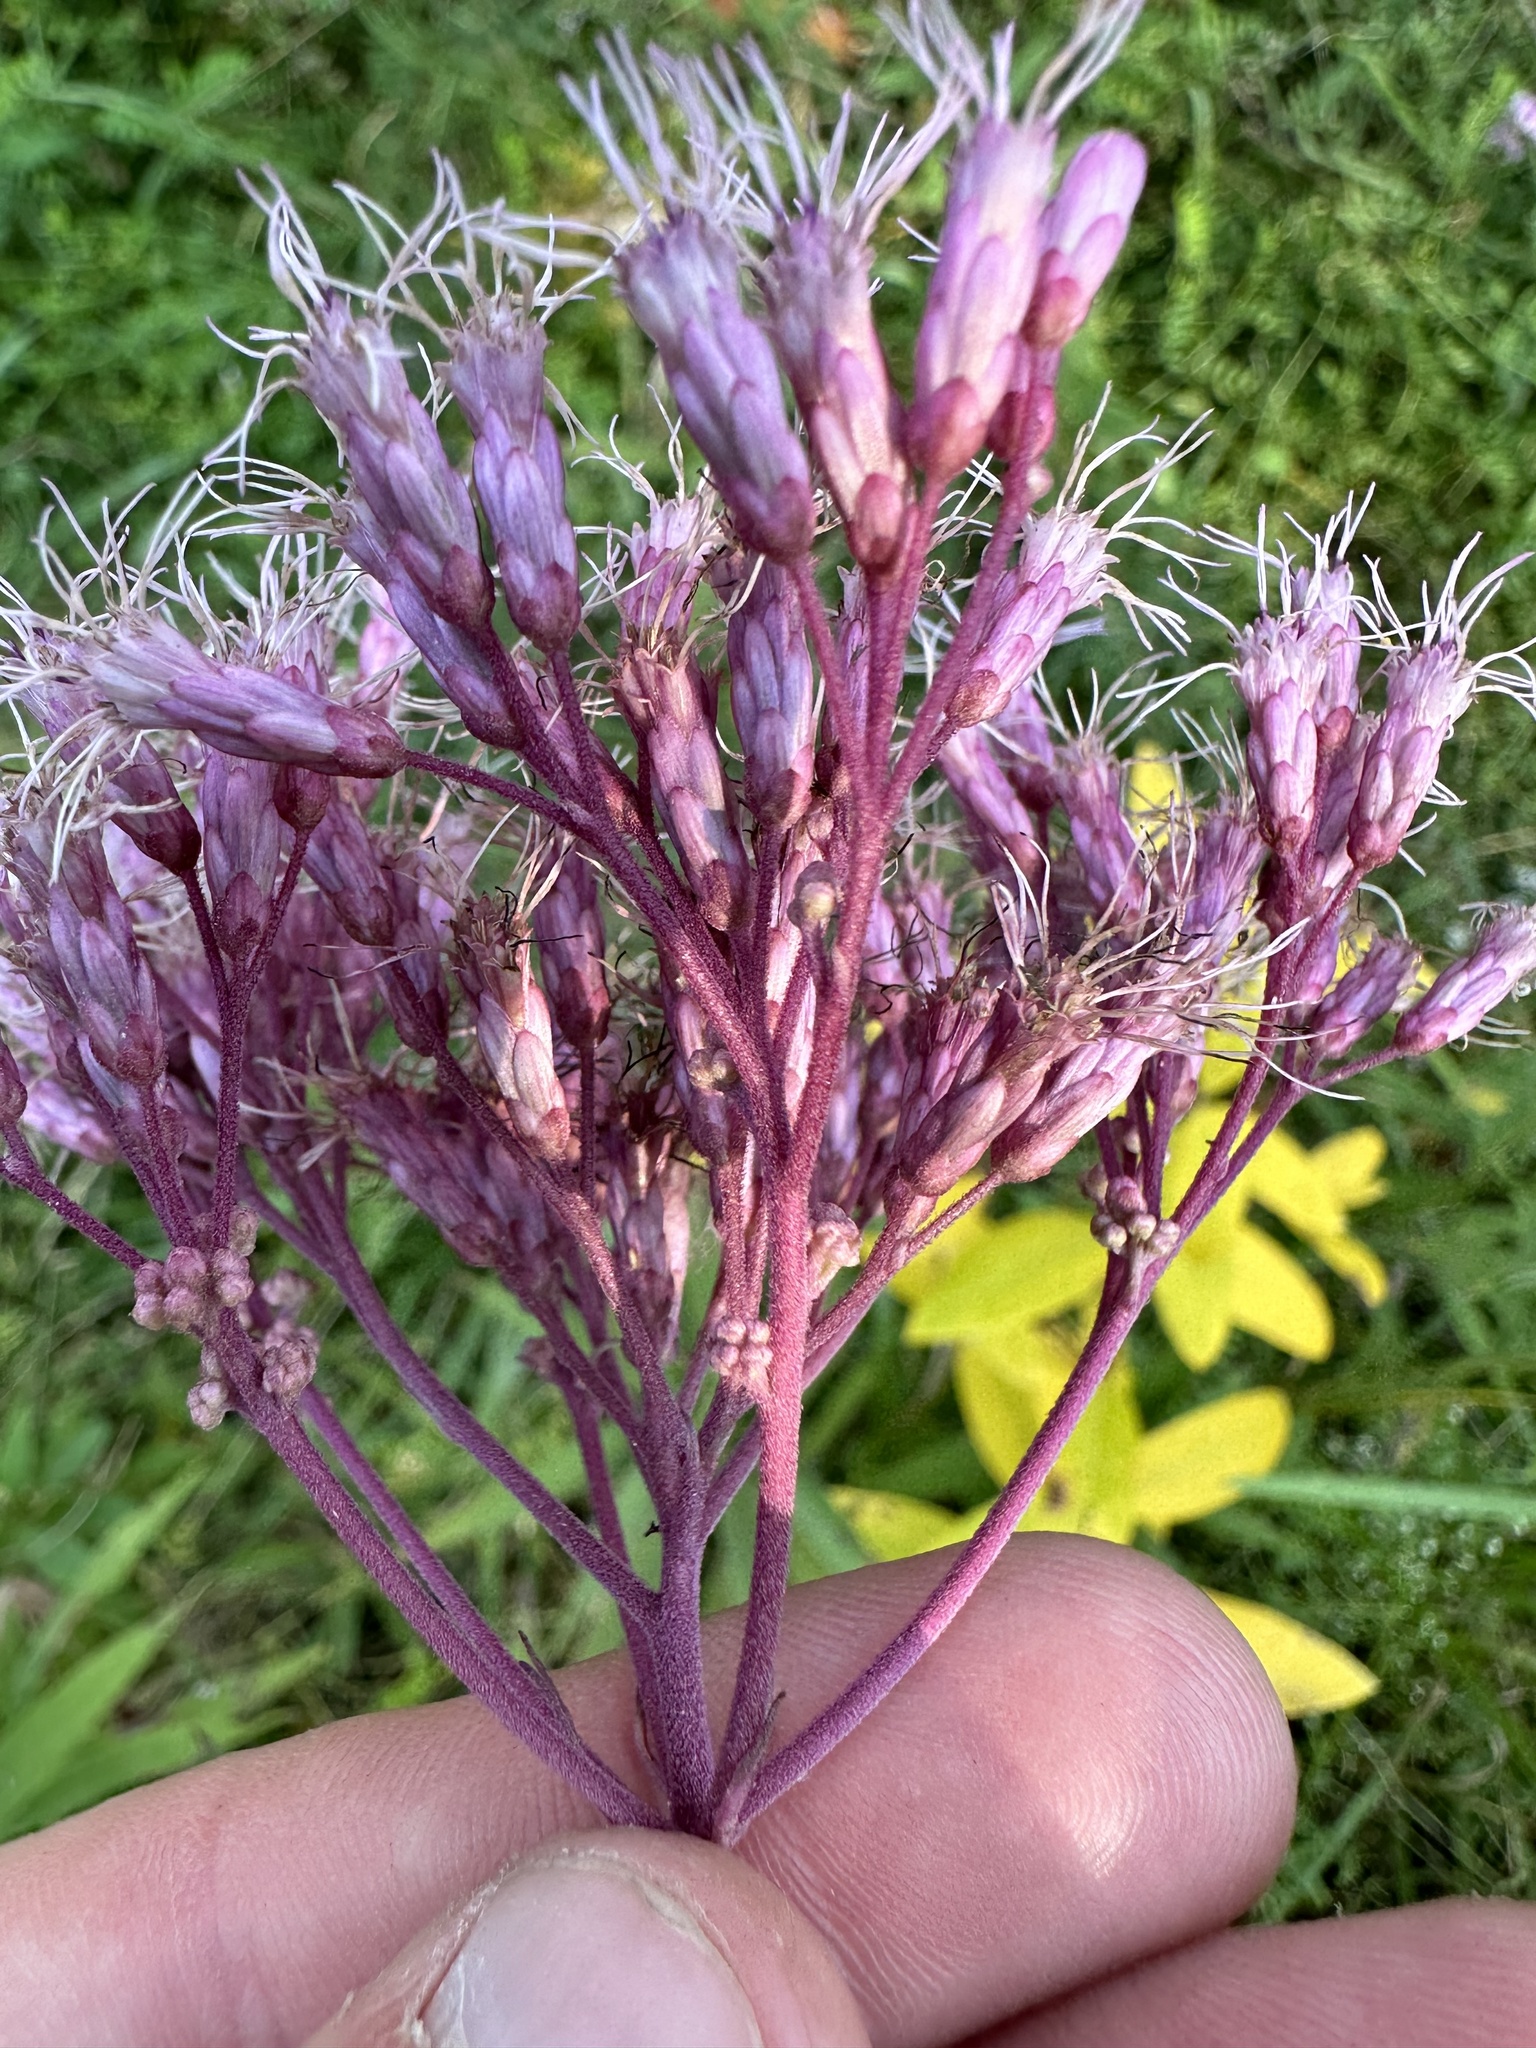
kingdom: Plantae
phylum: Tracheophyta
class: Magnoliopsida
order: Asterales
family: Asteraceae
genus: Eutrochium
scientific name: Eutrochium maculatum
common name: Spotted joe pye weed
